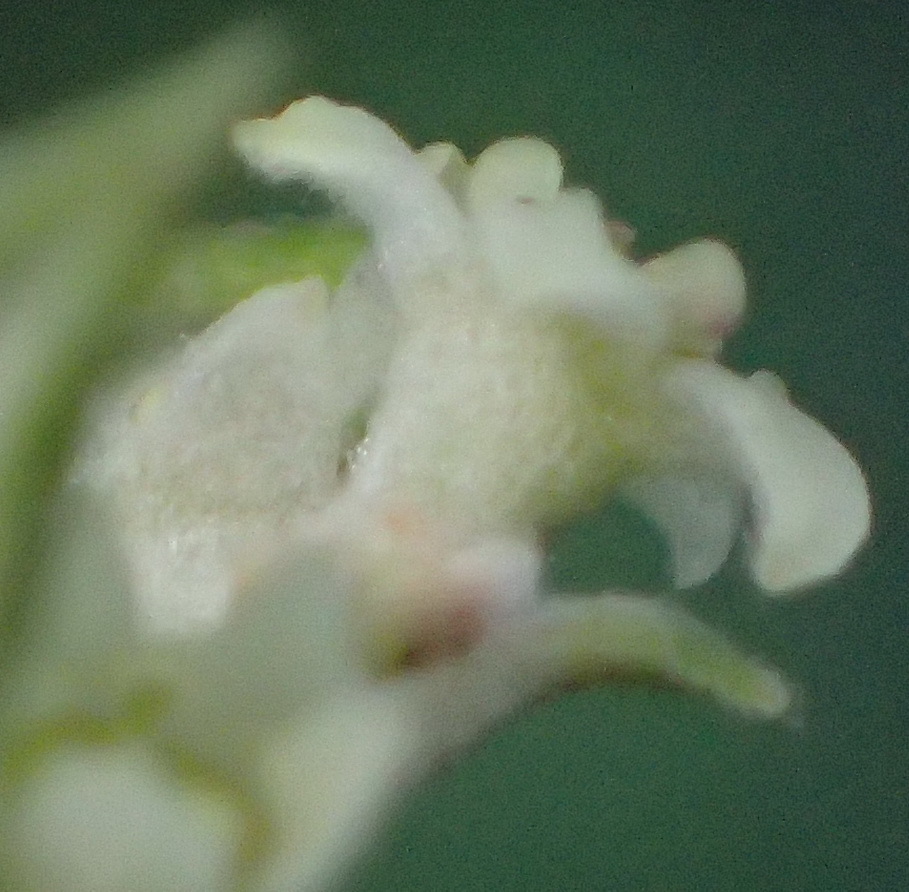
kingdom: Plantae
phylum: Tracheophyta
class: Magnoliopsida
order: Rosales
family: Rhamnaceae
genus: Phylica
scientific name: Phylica paniculata
